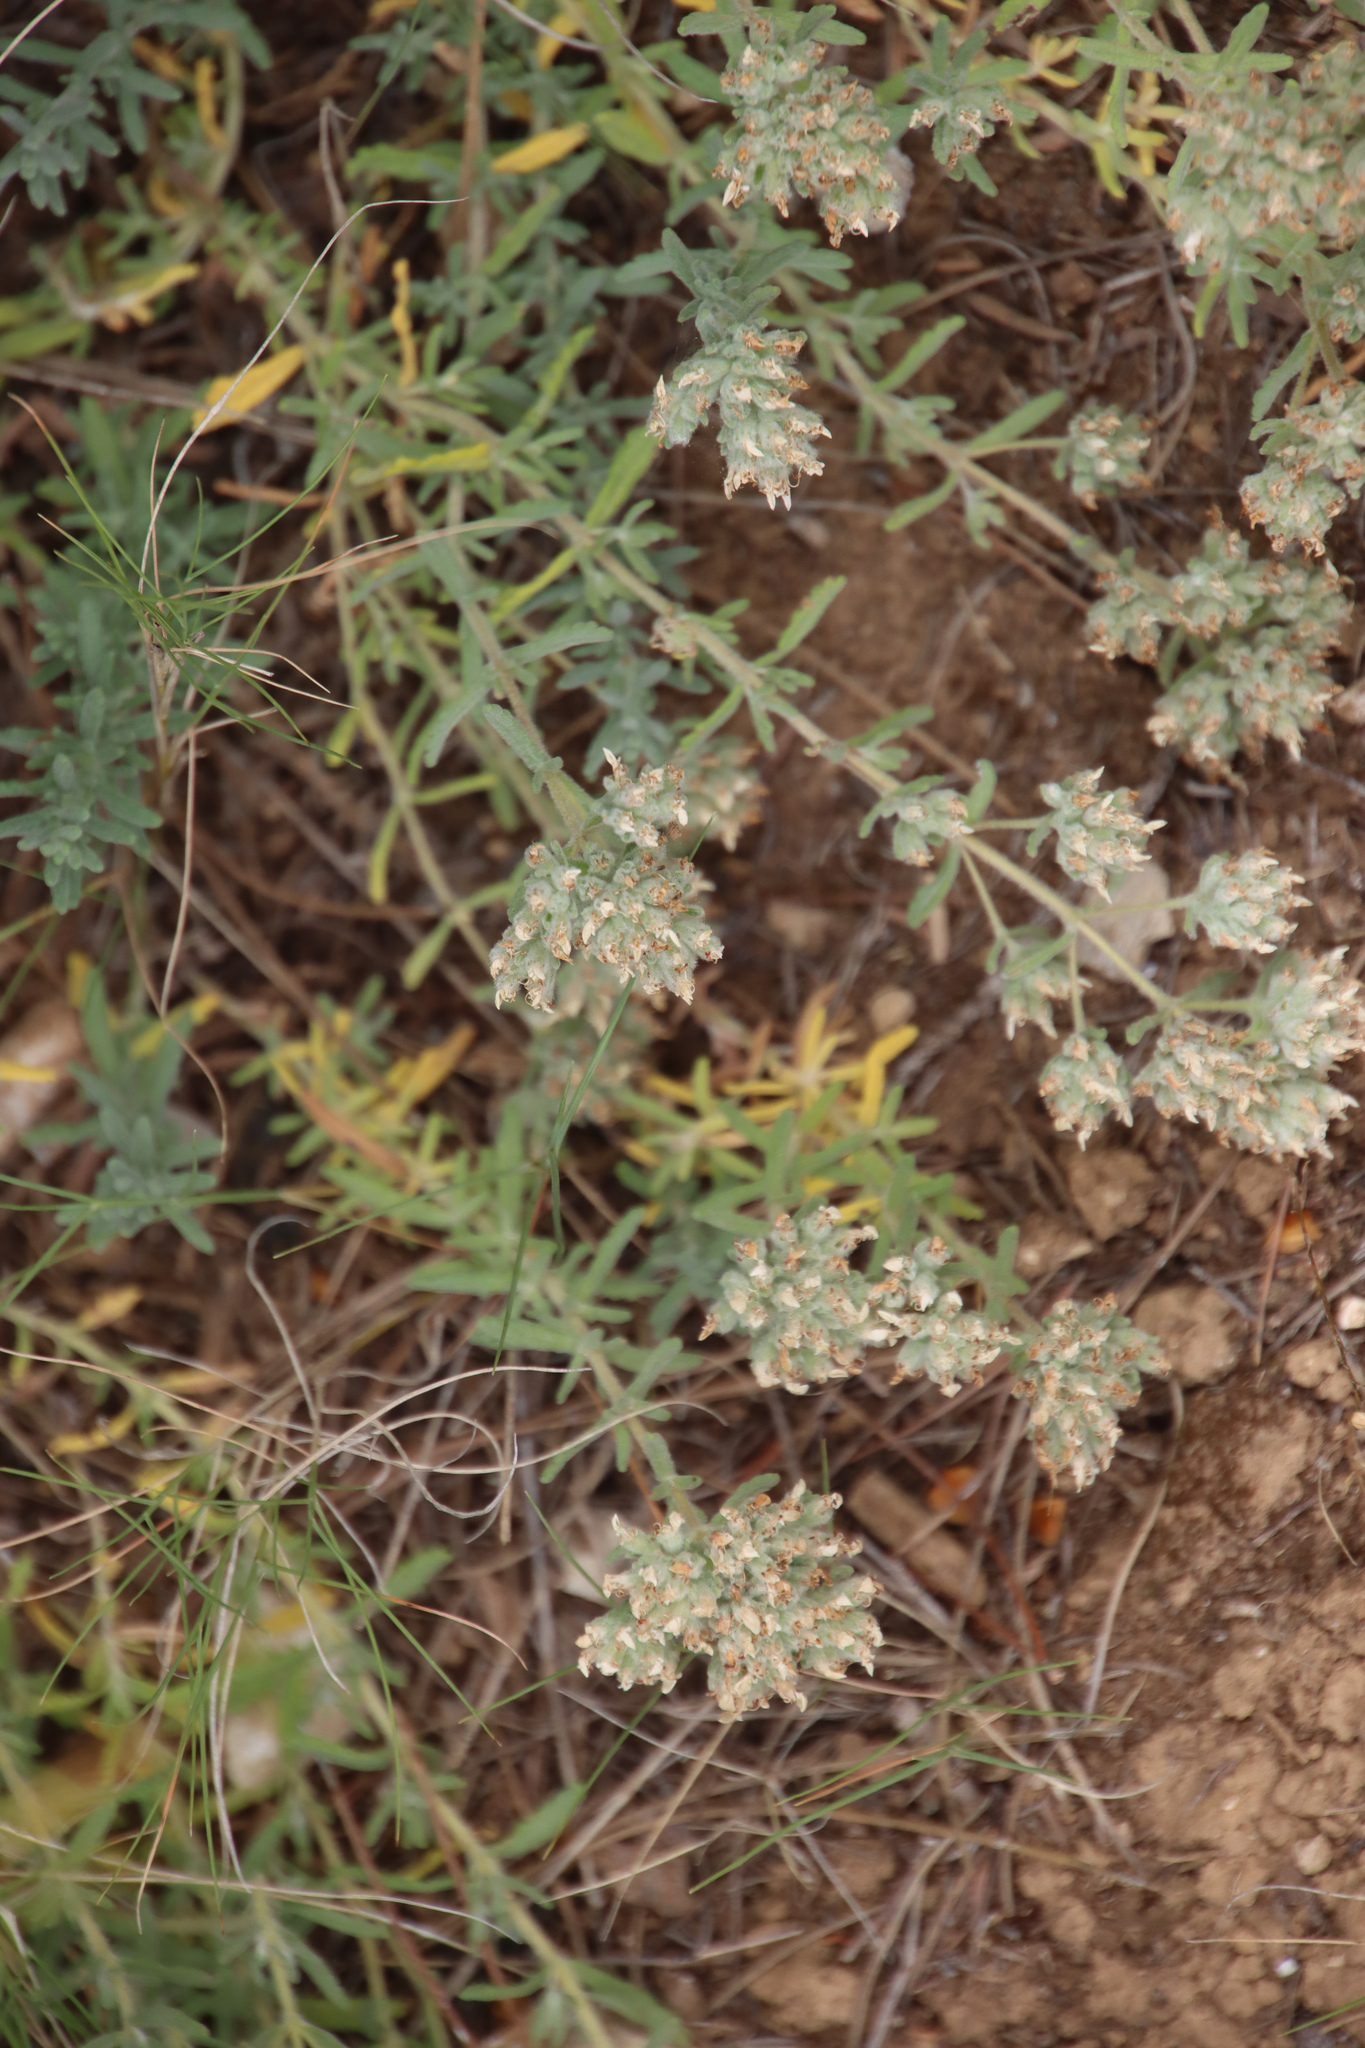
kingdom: Plantae
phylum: Tracheophyta
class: Magnoliopsida
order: Lamiales
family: Lamiaceae
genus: Teucrium
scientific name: Teucrium capitatum
